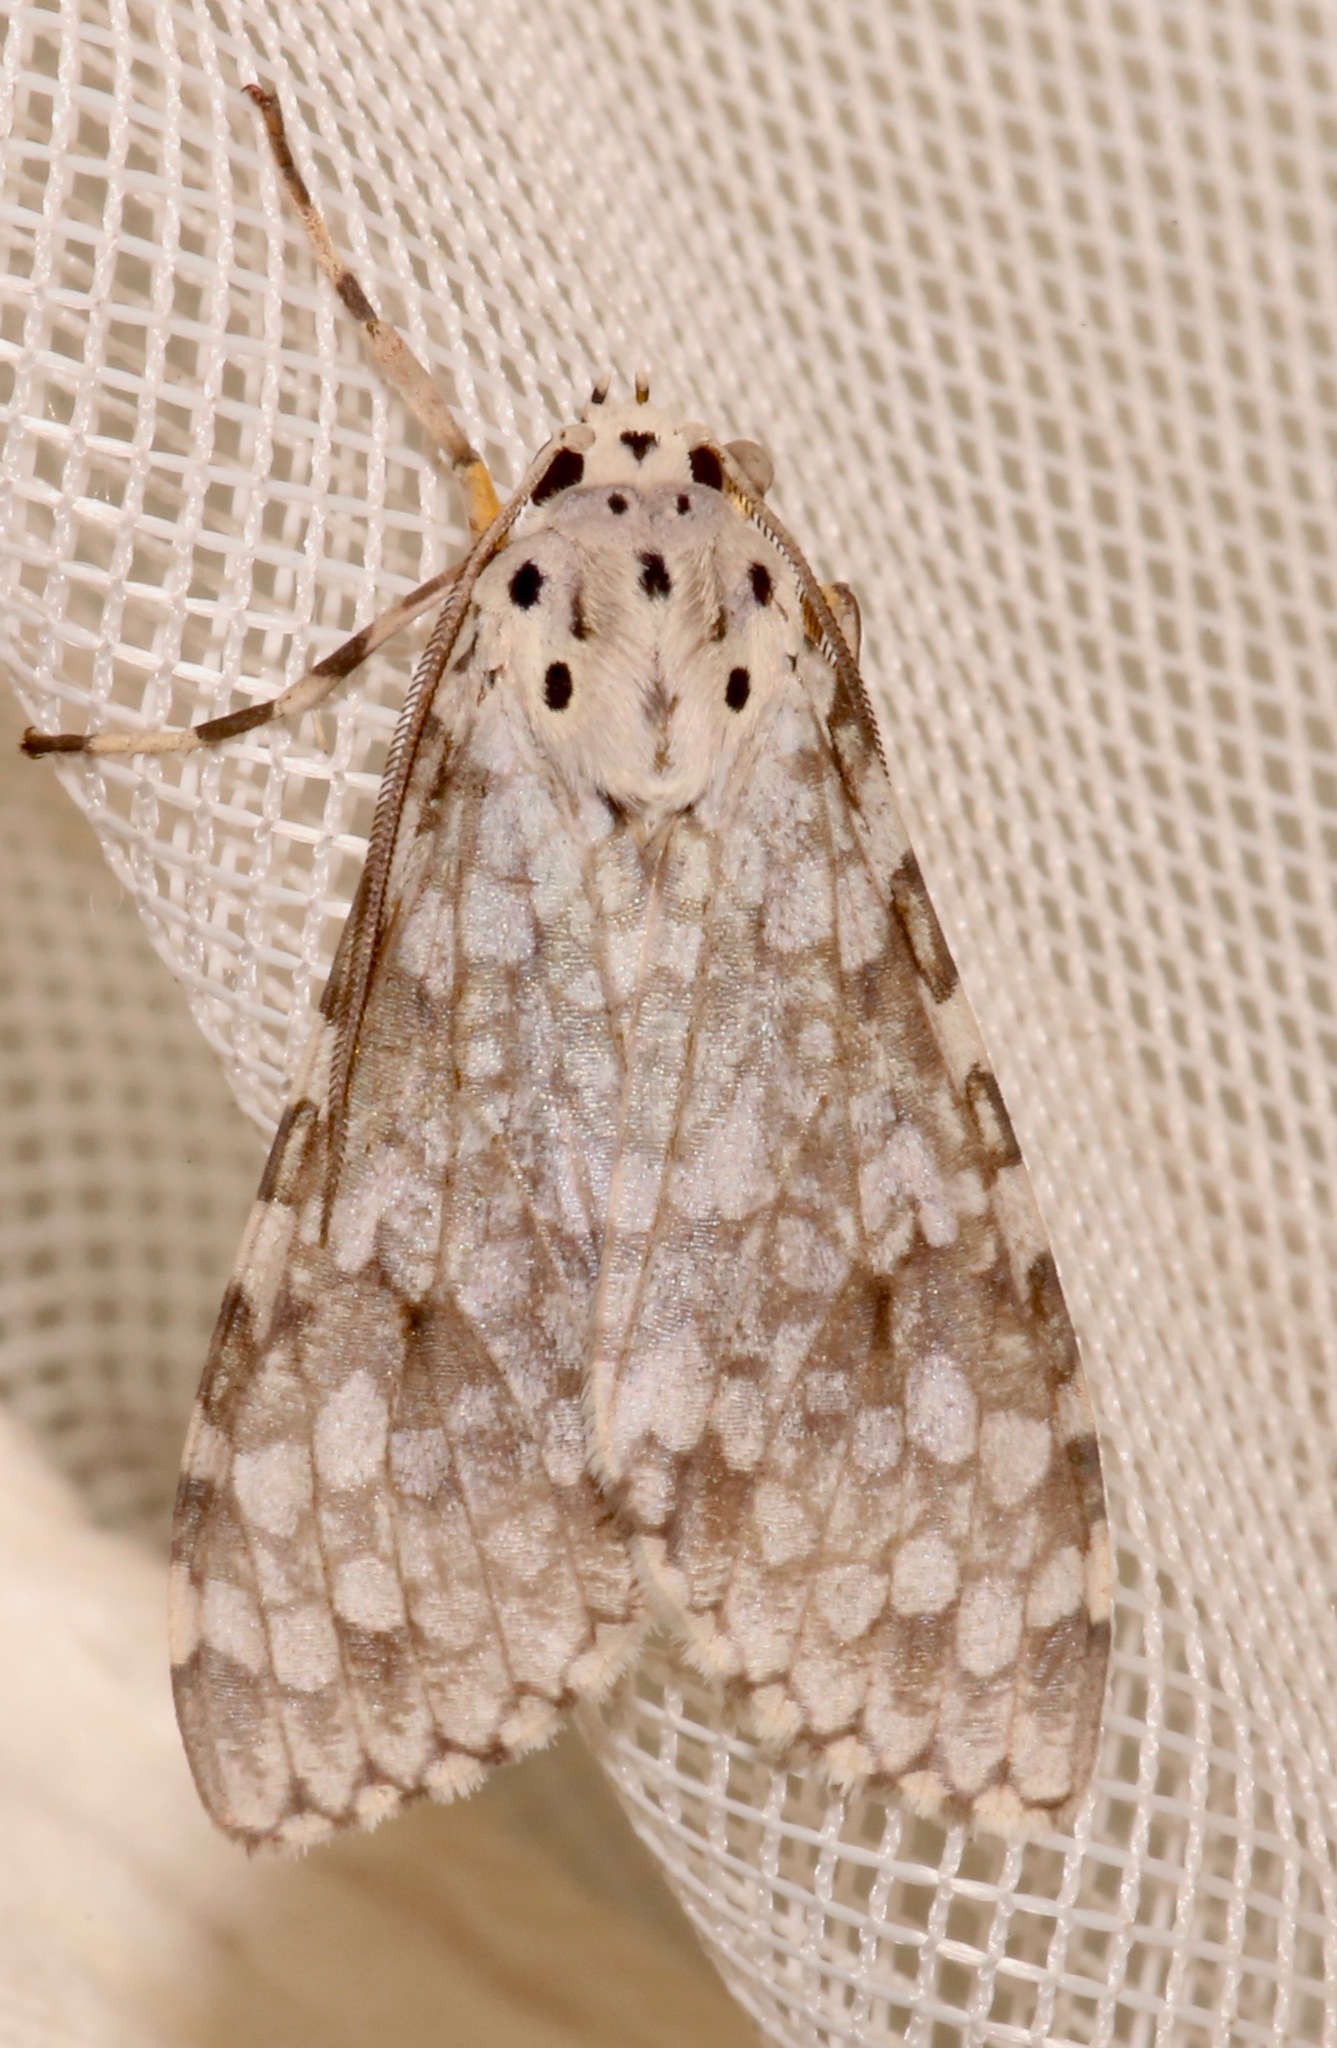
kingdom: Animalia
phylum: Arthropoda
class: Insecta
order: Lepidoptera
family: Erebidae
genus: Carales
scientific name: Carales arizonensis
